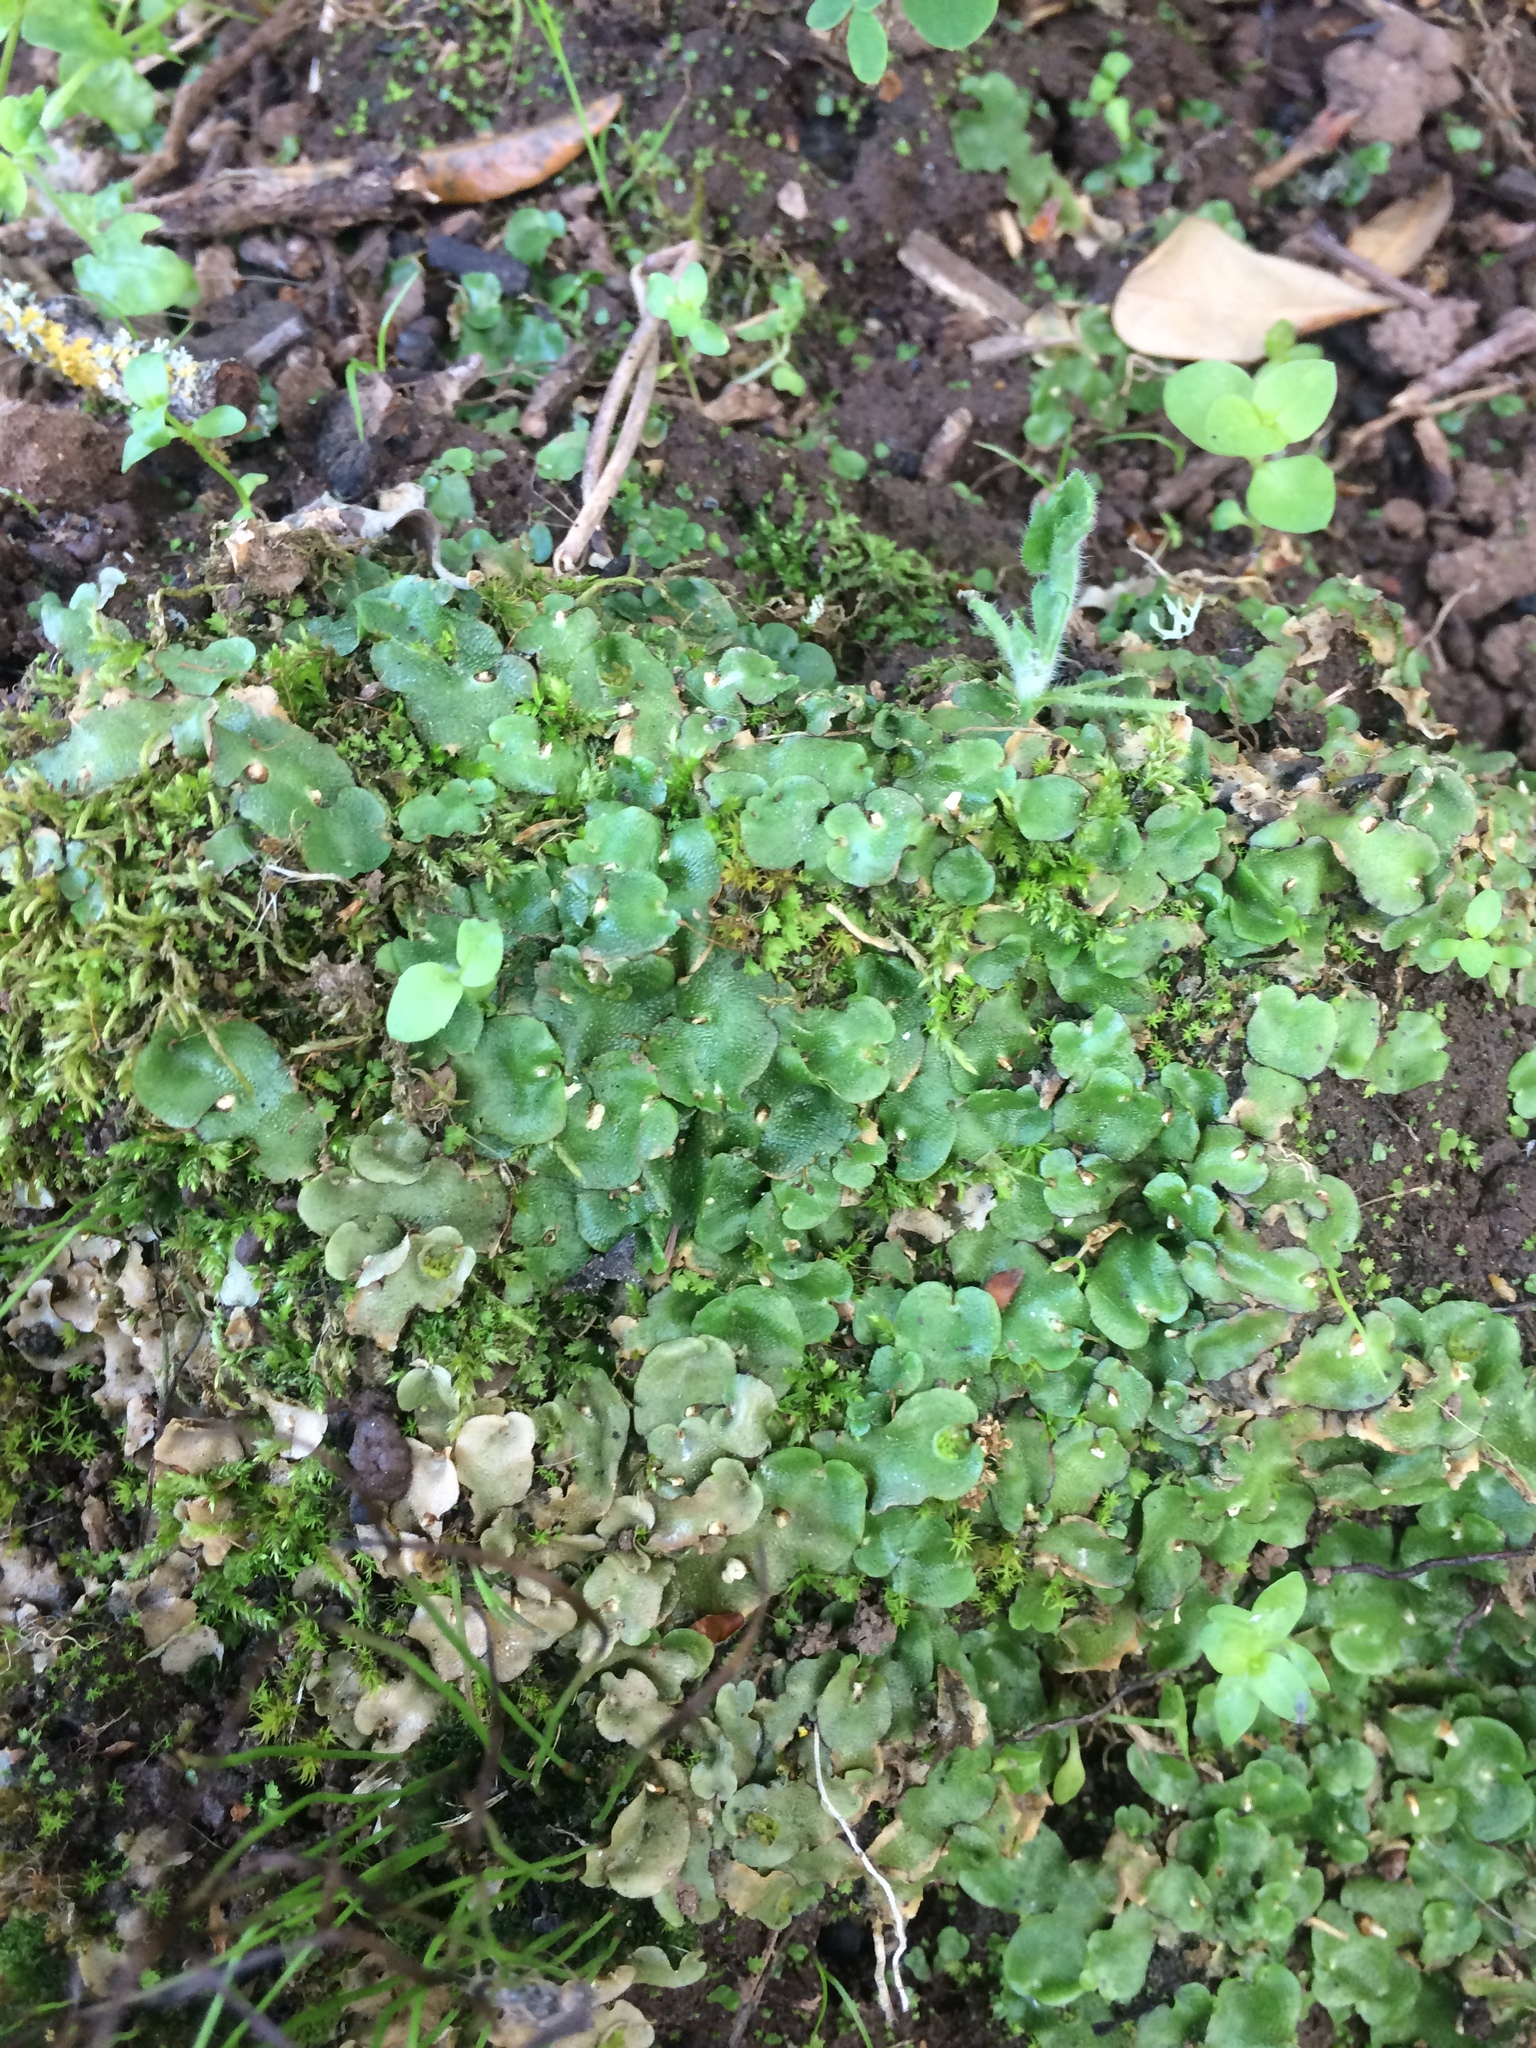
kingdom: Plantae
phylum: Marchantiophyta
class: Marchantiopsida
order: Lunulariales
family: Lunulariaceae
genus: Lunularia
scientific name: Lunularia cruciata
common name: Crescent-cup liverwort
